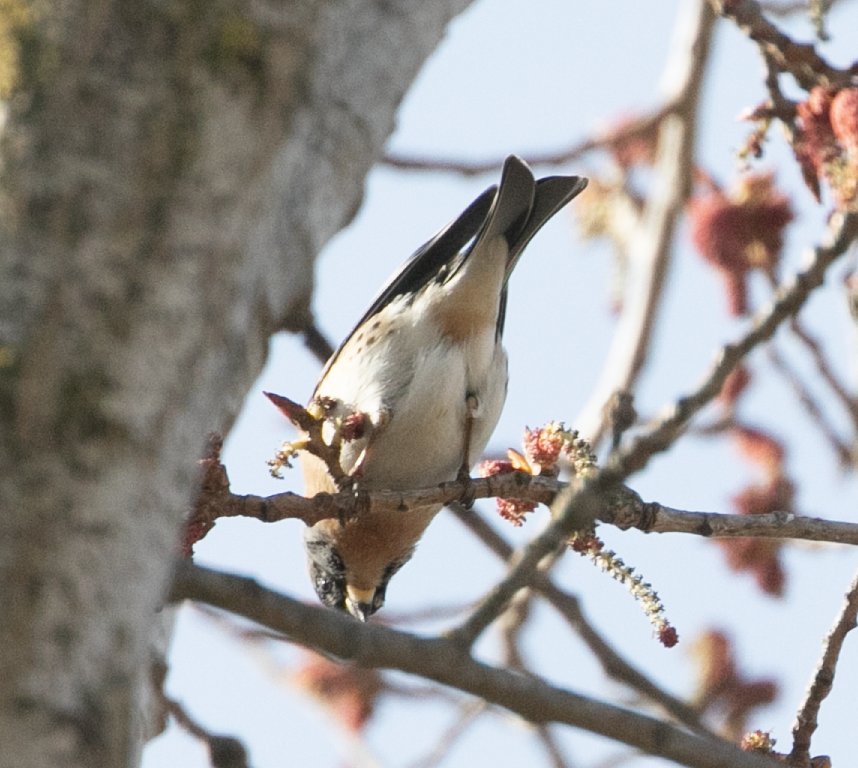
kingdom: Animalia
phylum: Chordata
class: Aves
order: Passeriformes
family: Fringillidae
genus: Fringilla
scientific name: Fringilla montifringilla
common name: Brambling
